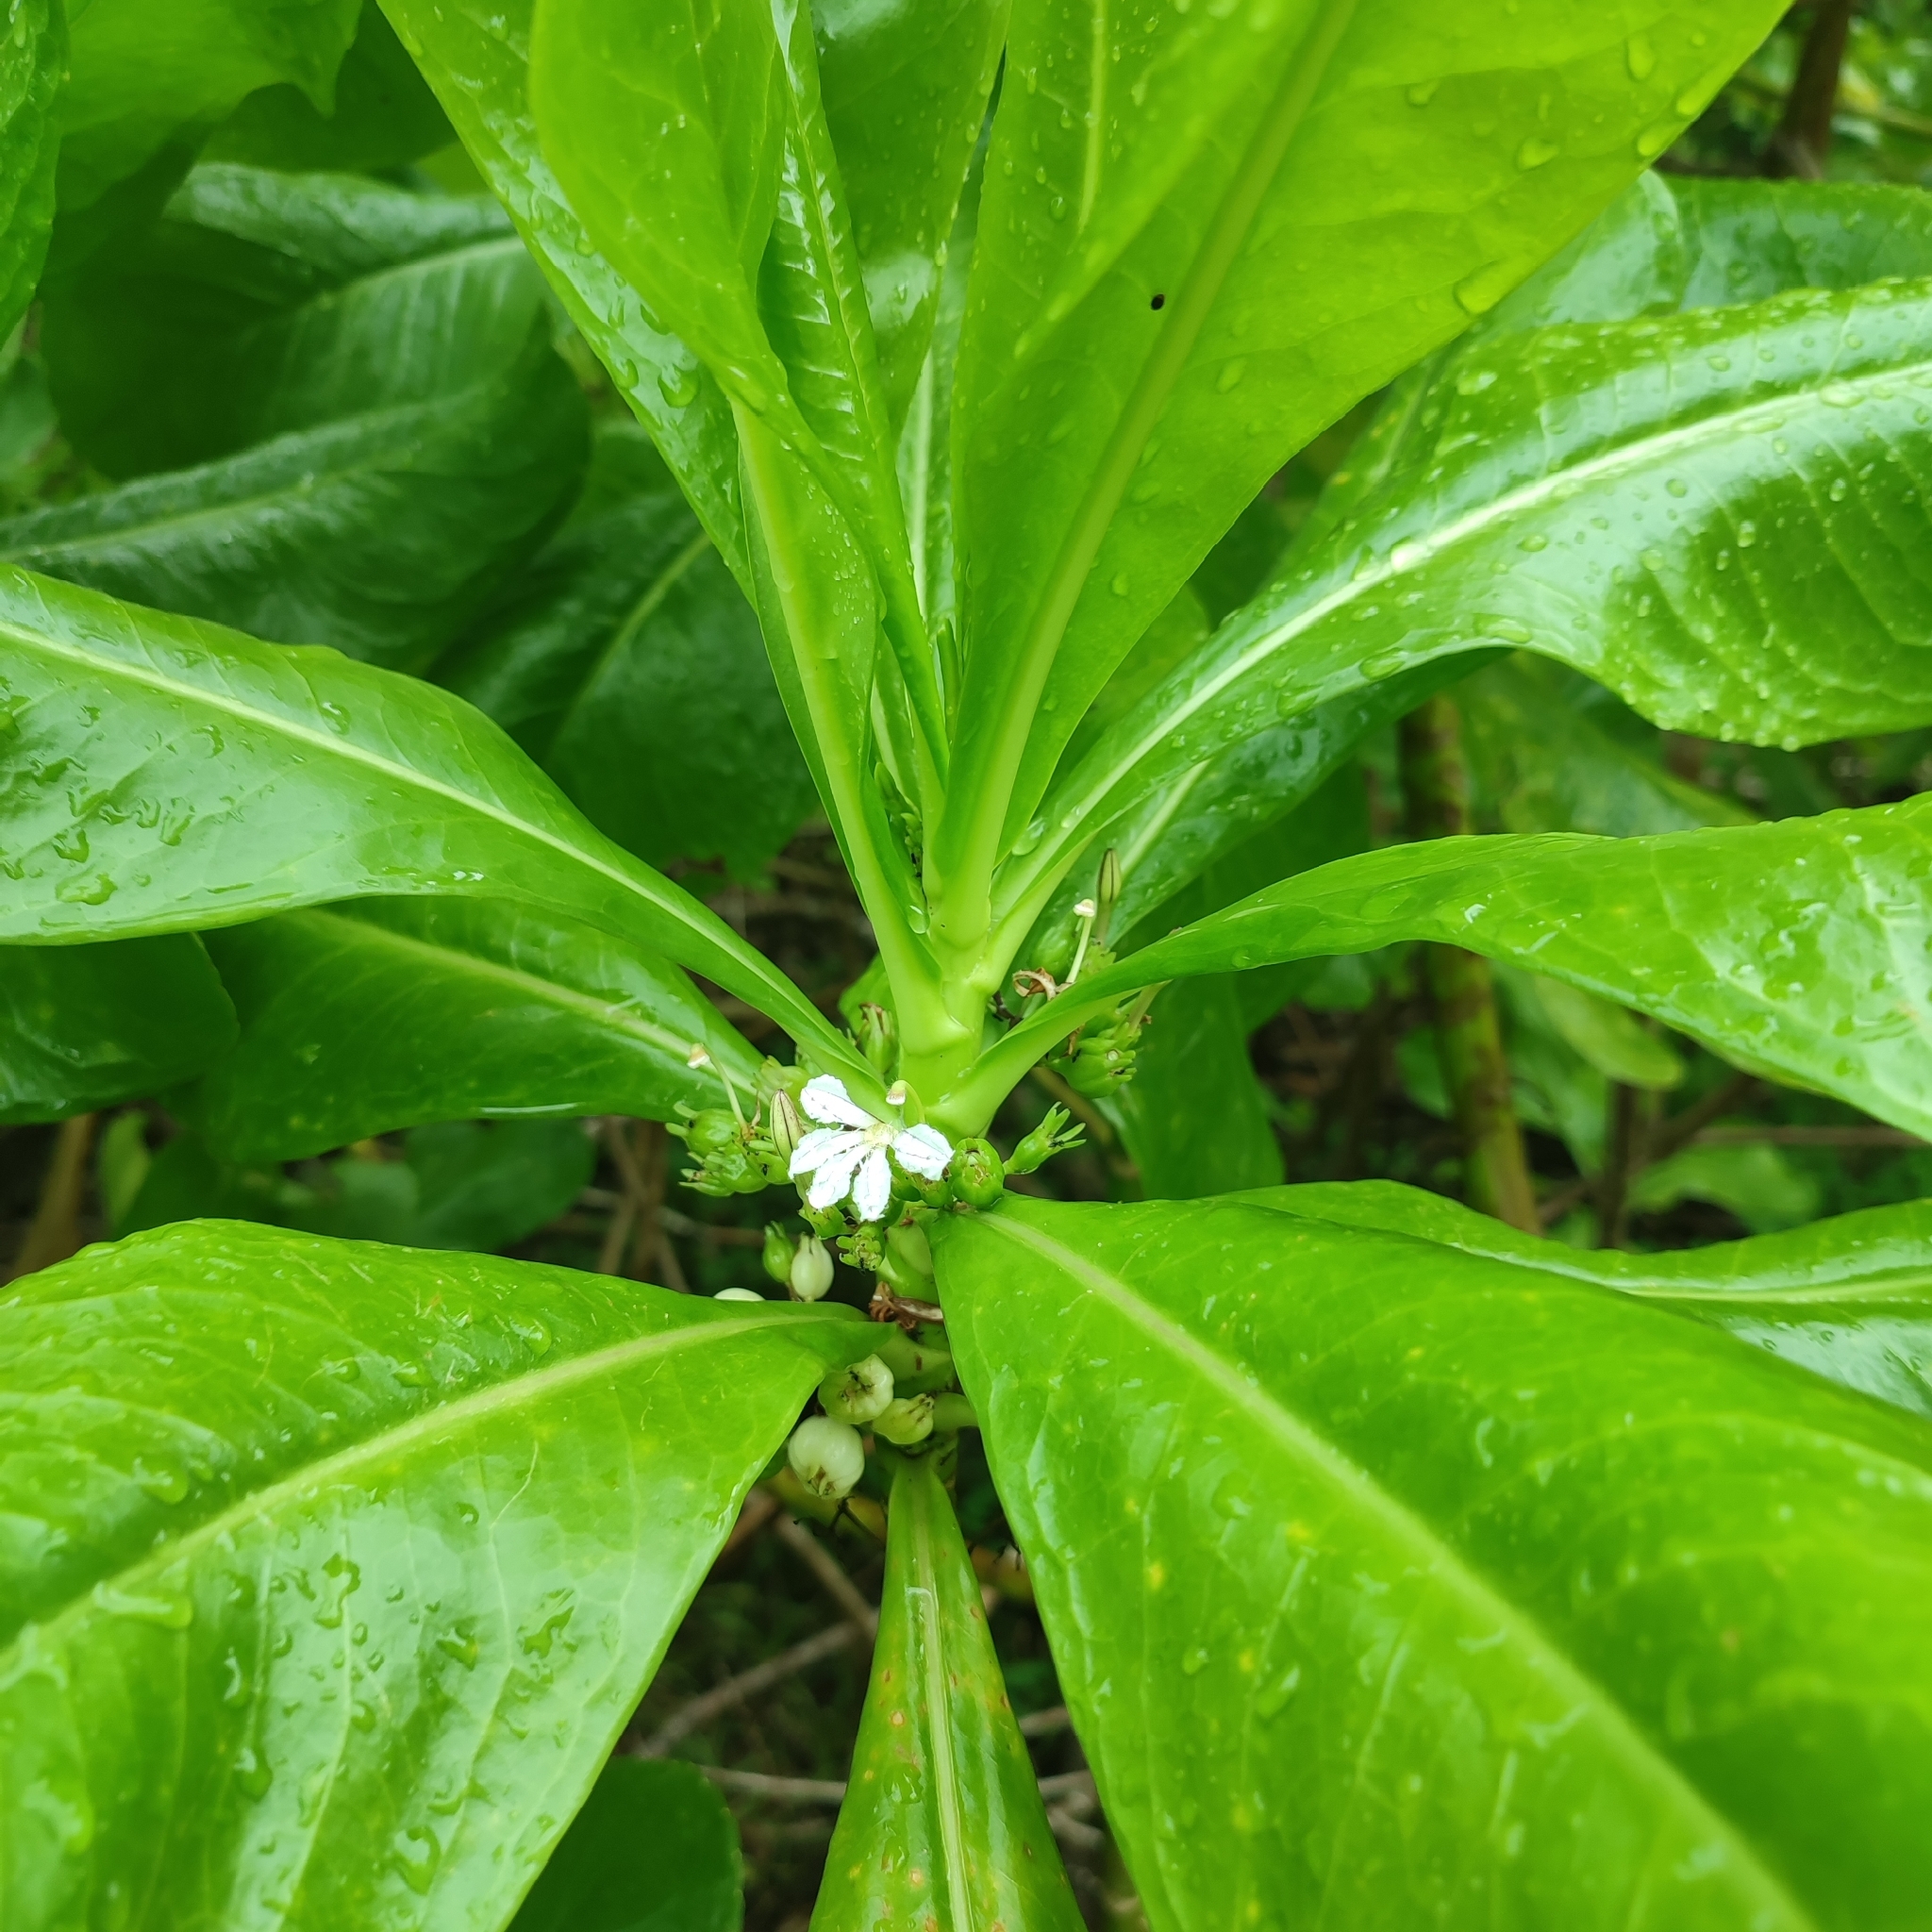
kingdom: Plantae
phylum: Tracheophyta
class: Magnoliopsida
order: Asterales
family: Goodeniaceae
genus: Scaevola
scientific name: Scaevola taccada
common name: Sea lettucetree
